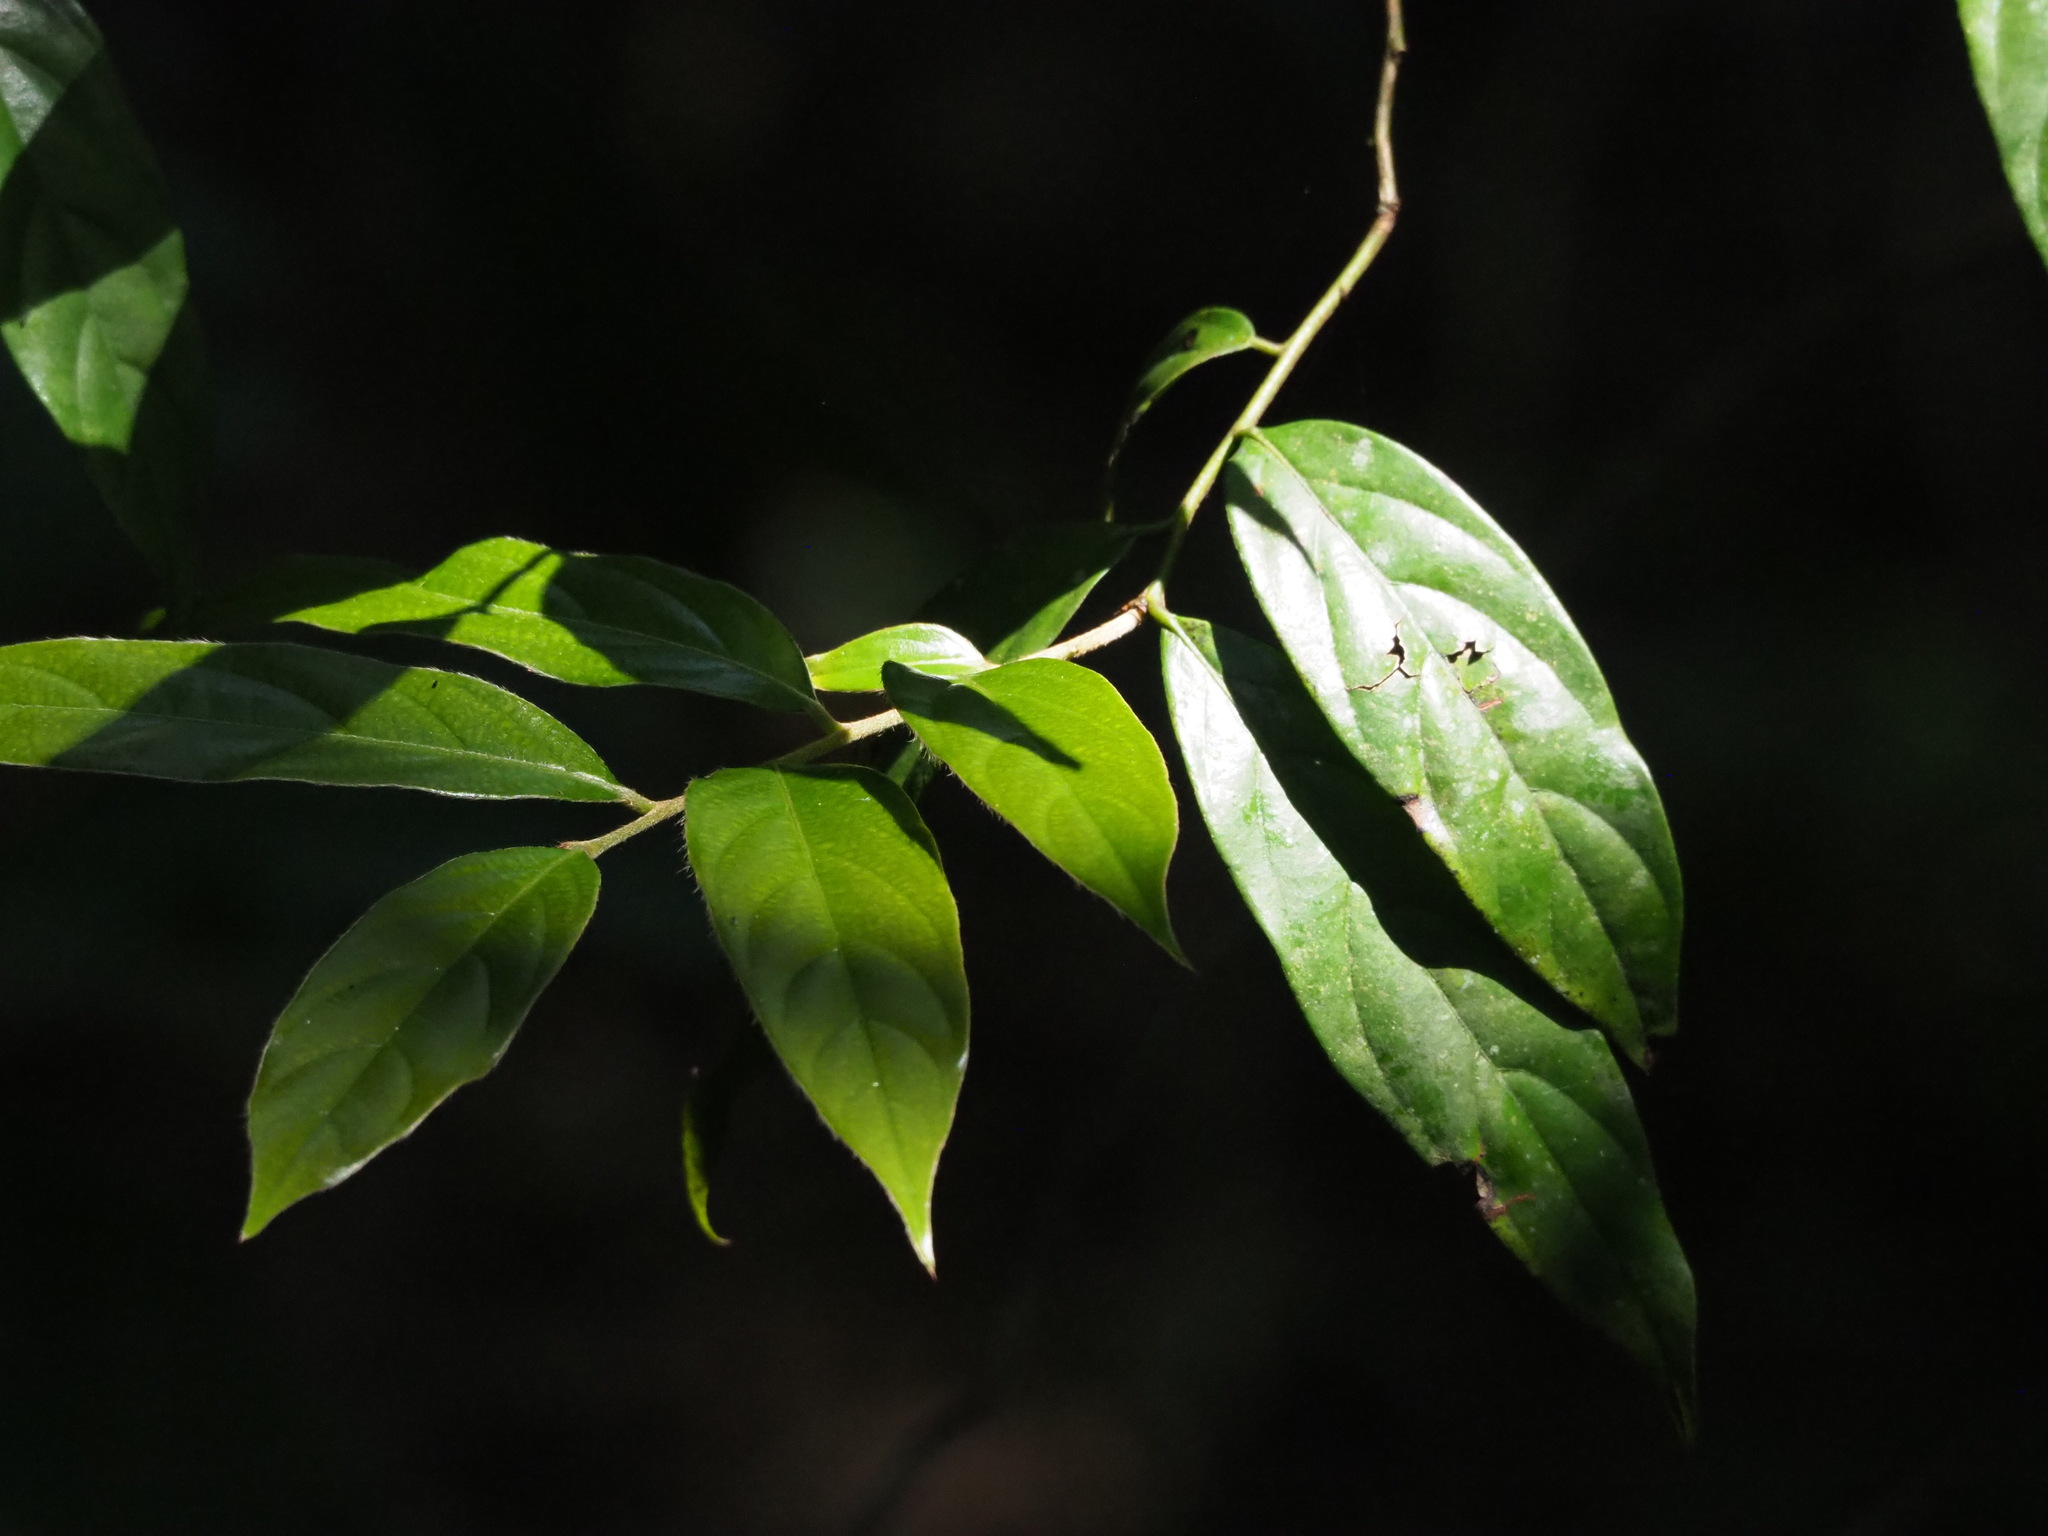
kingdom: Plantae
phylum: Tracheophyta
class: Magnoliopsida
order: Ericales
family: Ebenaceae
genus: Diospyros
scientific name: Diospyros eriantha
